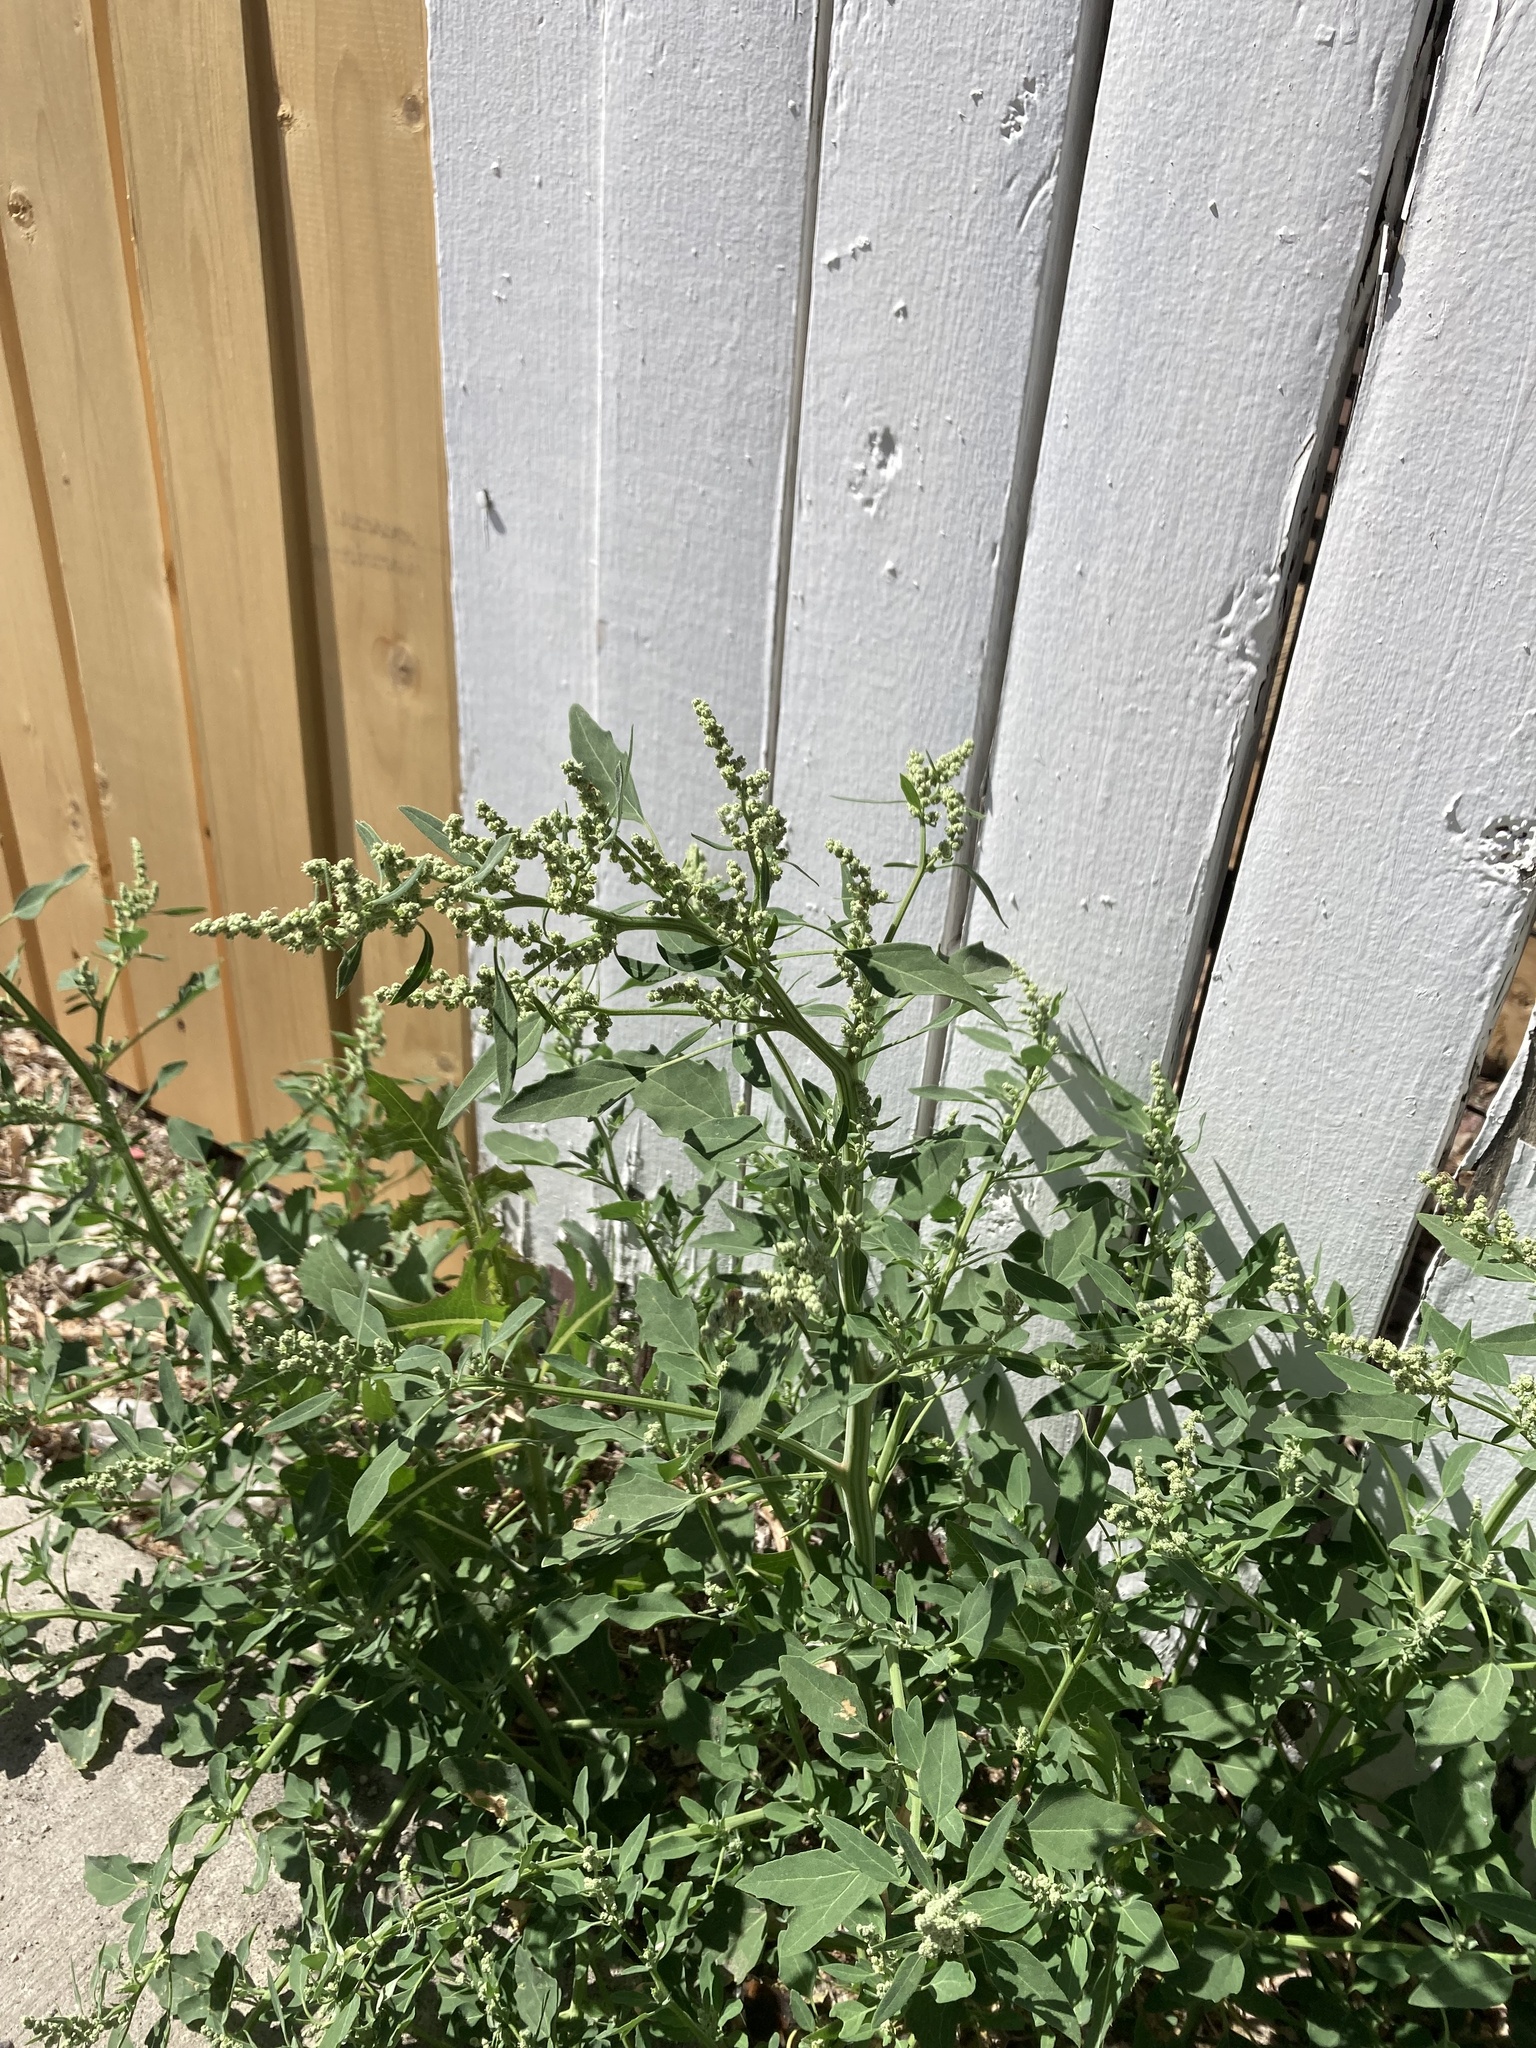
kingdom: Plantae
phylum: Tracheophyta
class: Magnoliopsida
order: Caryophyllales
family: Amaranthaceae
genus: Chenopodium
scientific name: Chenopodium album
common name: Fat-hen
